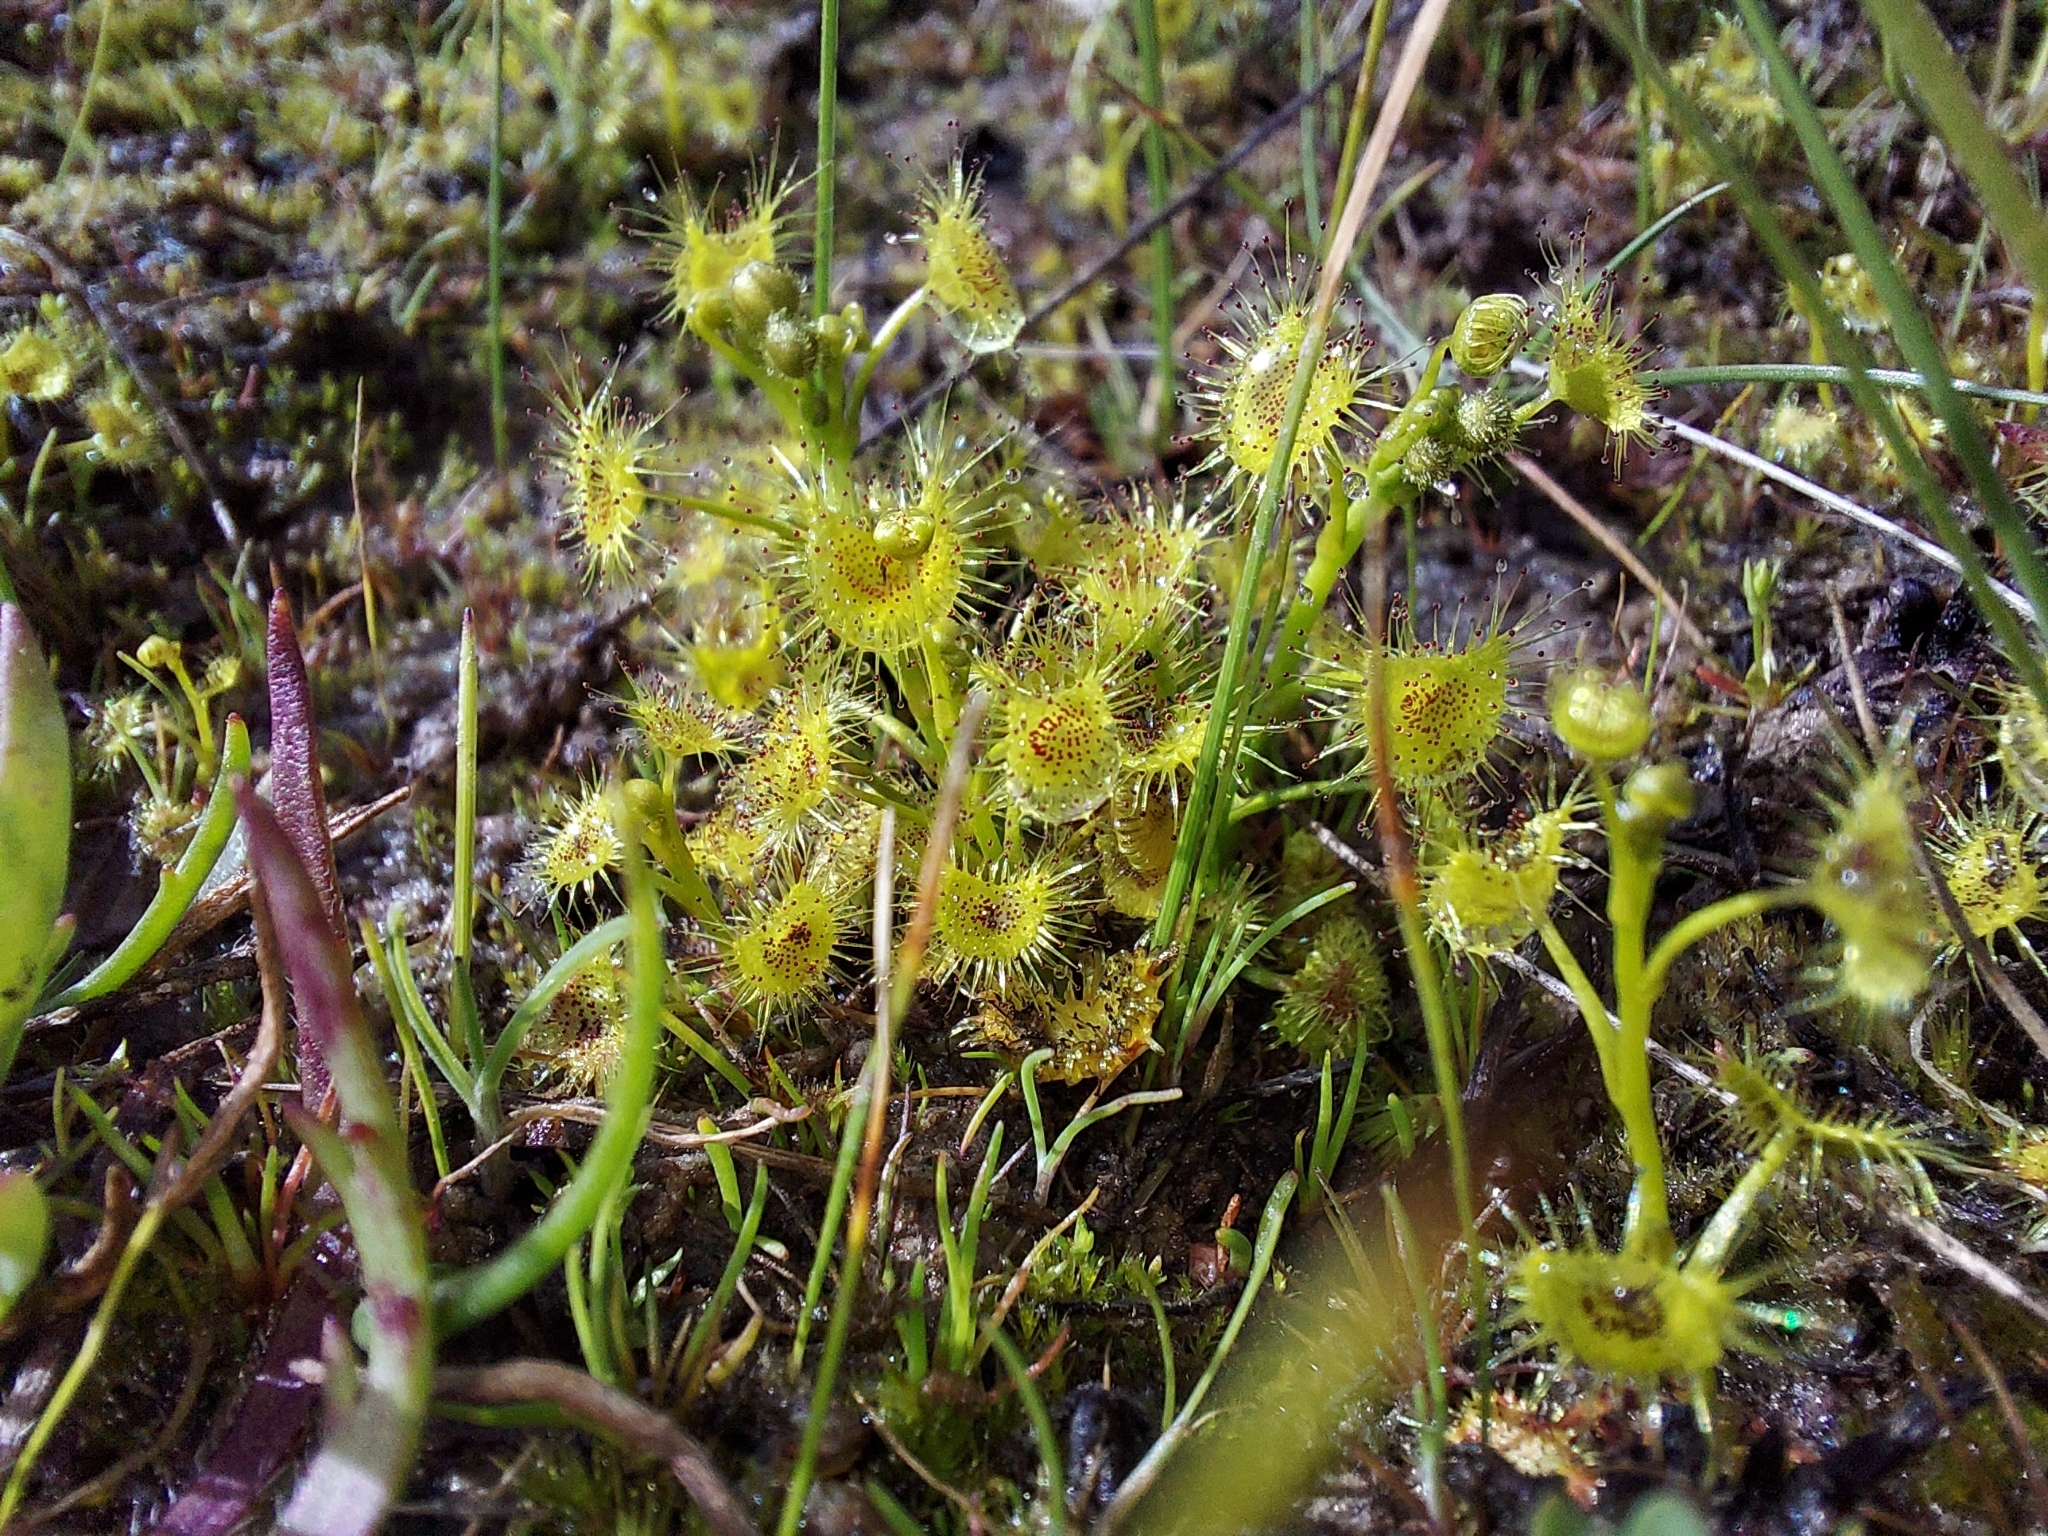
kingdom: Plantae
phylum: Tracheophyta
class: Magnoliopsida
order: Caryophyllales
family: Droseraceae
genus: Drosera
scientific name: Drosera hookeri
